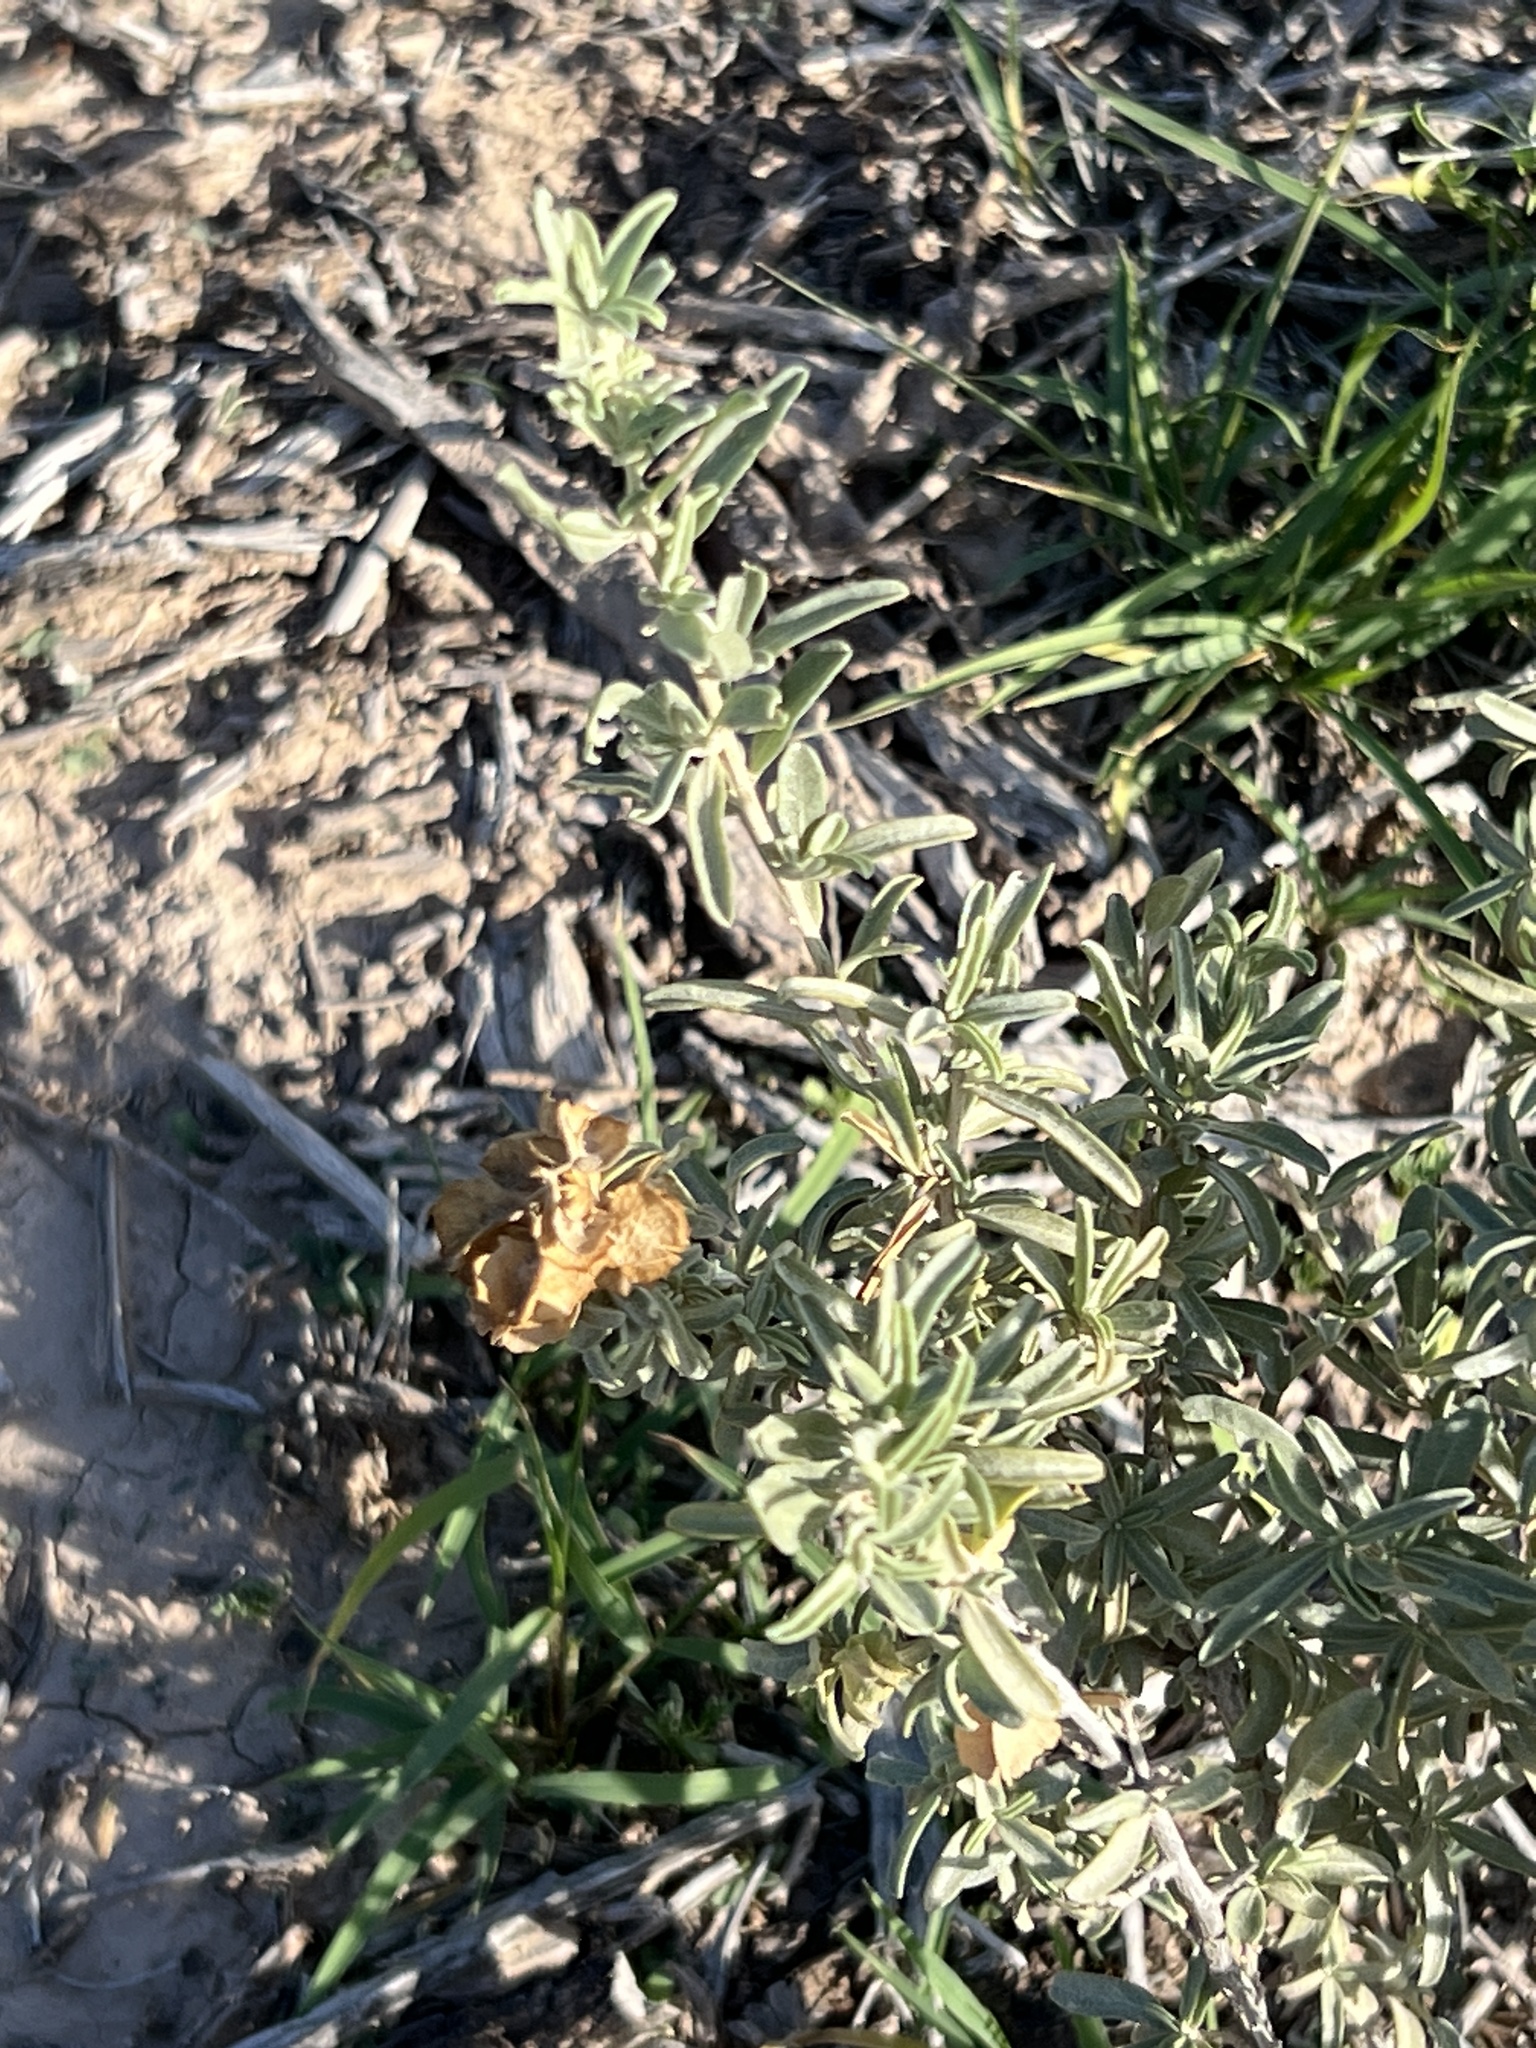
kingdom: Plantae
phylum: Tracheophyta
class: Magnoliopsida
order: Caryophyllales
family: Amaranthaceae
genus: Atriplex
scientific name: Atriplex canescens
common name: Four-wing saltbush
